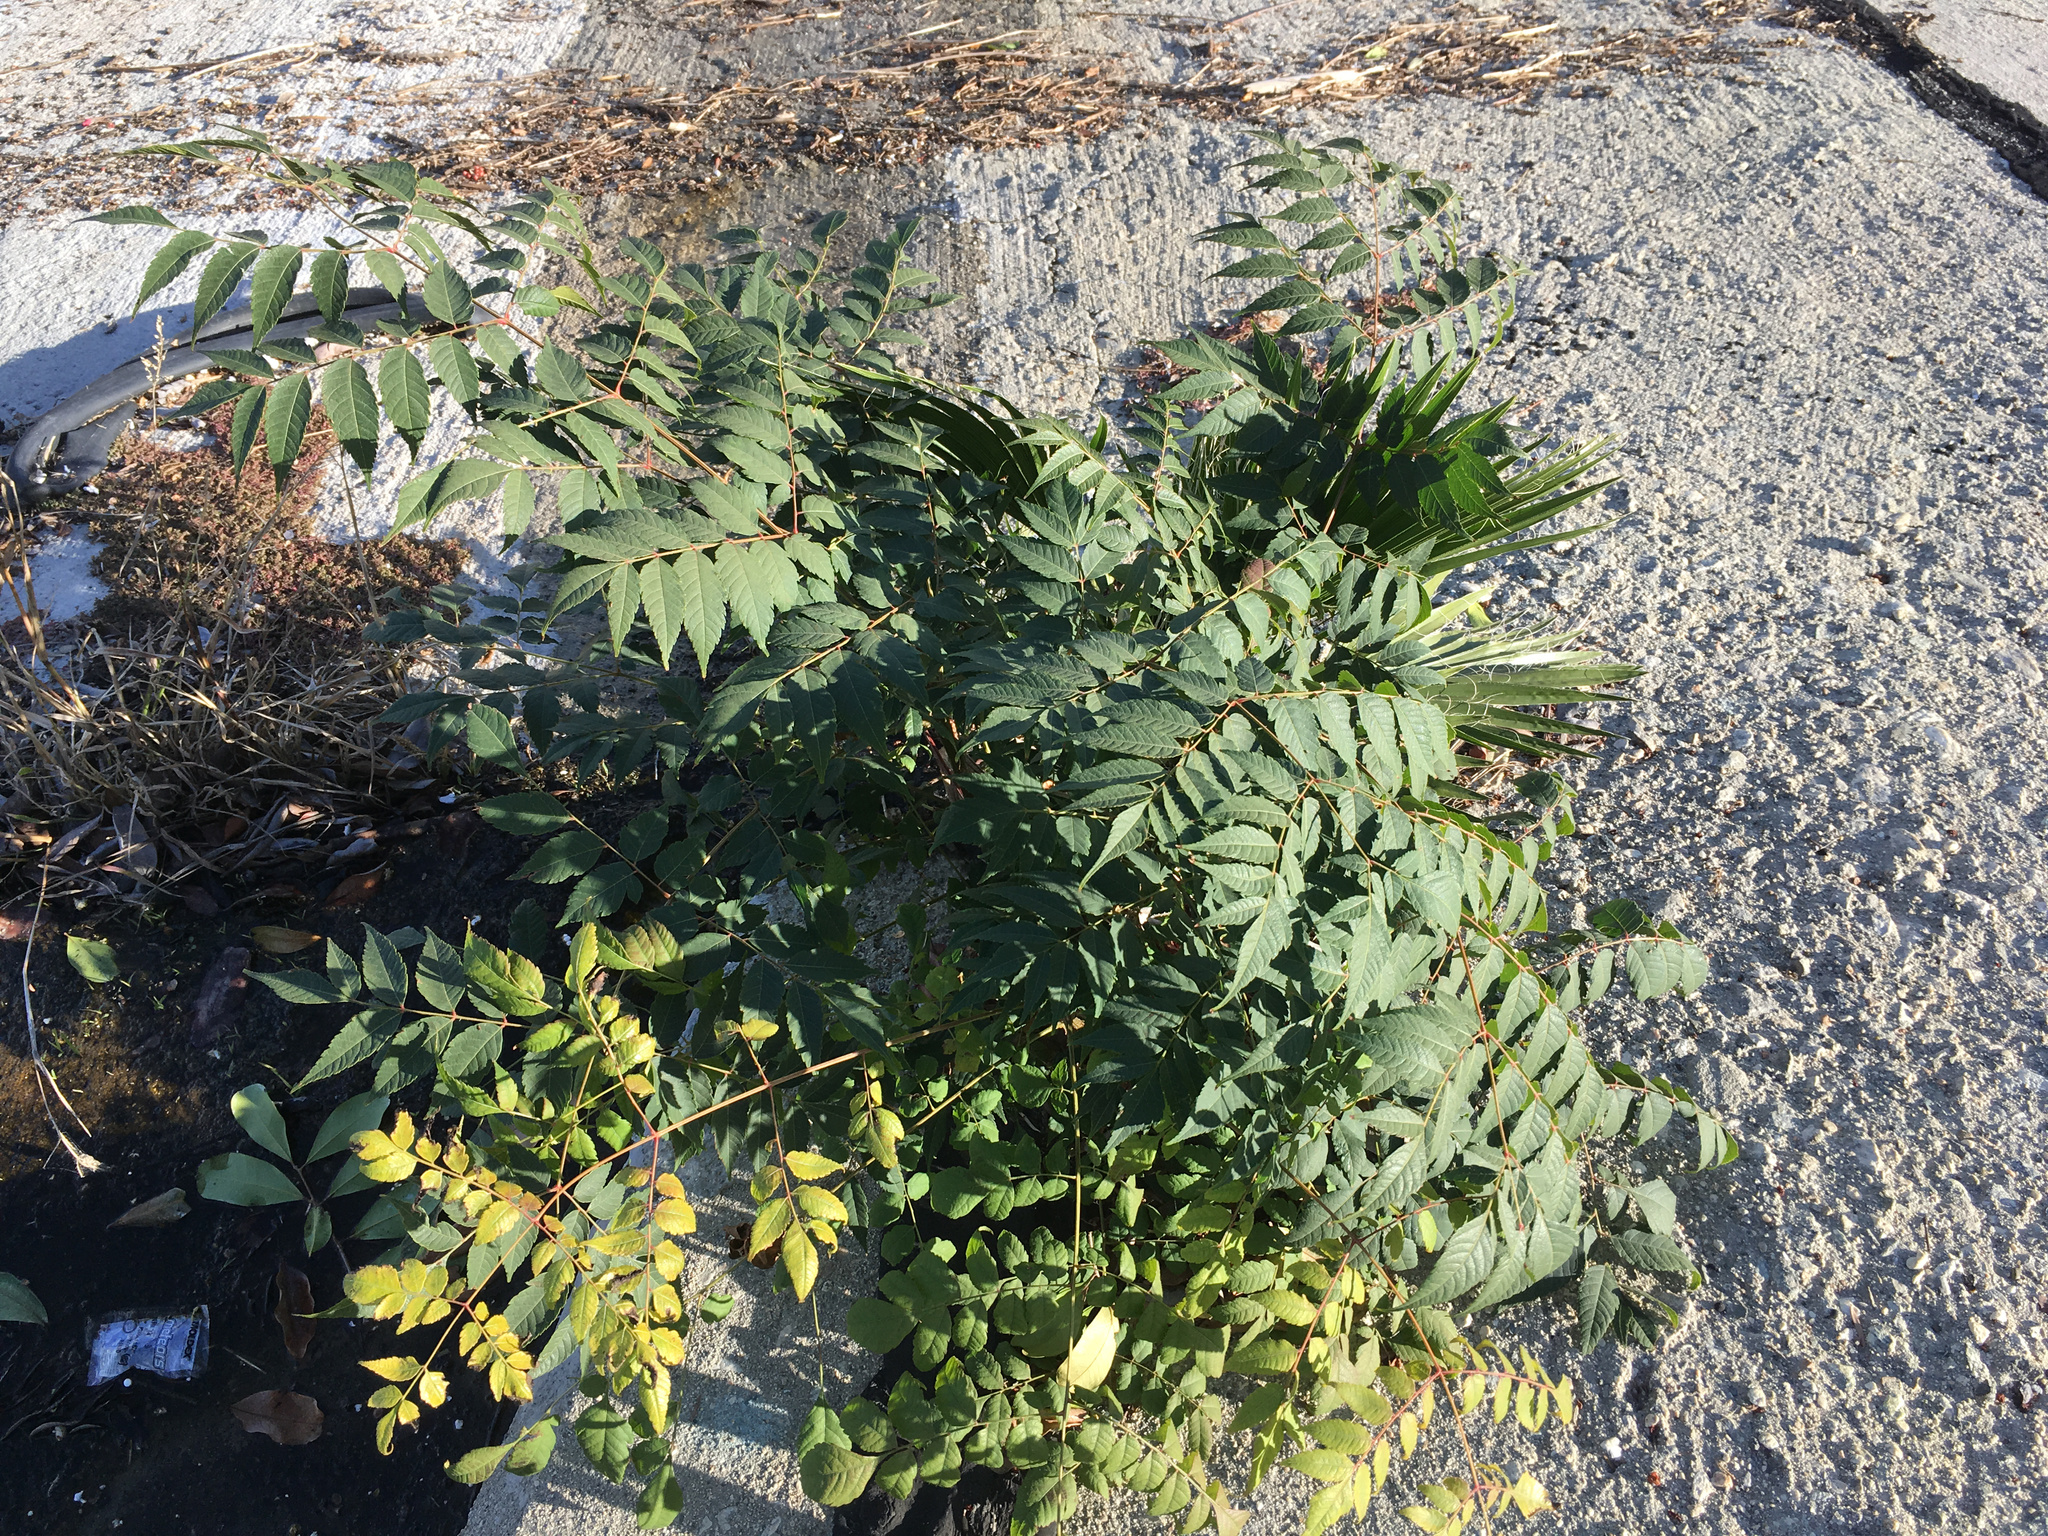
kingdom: Plantae
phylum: Tracheophyta
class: Magnoliopsida
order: Sapindales
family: Sapindaceae
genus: Koelreuteria
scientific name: Koelreuteria paniculata
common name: Pride-of-india
